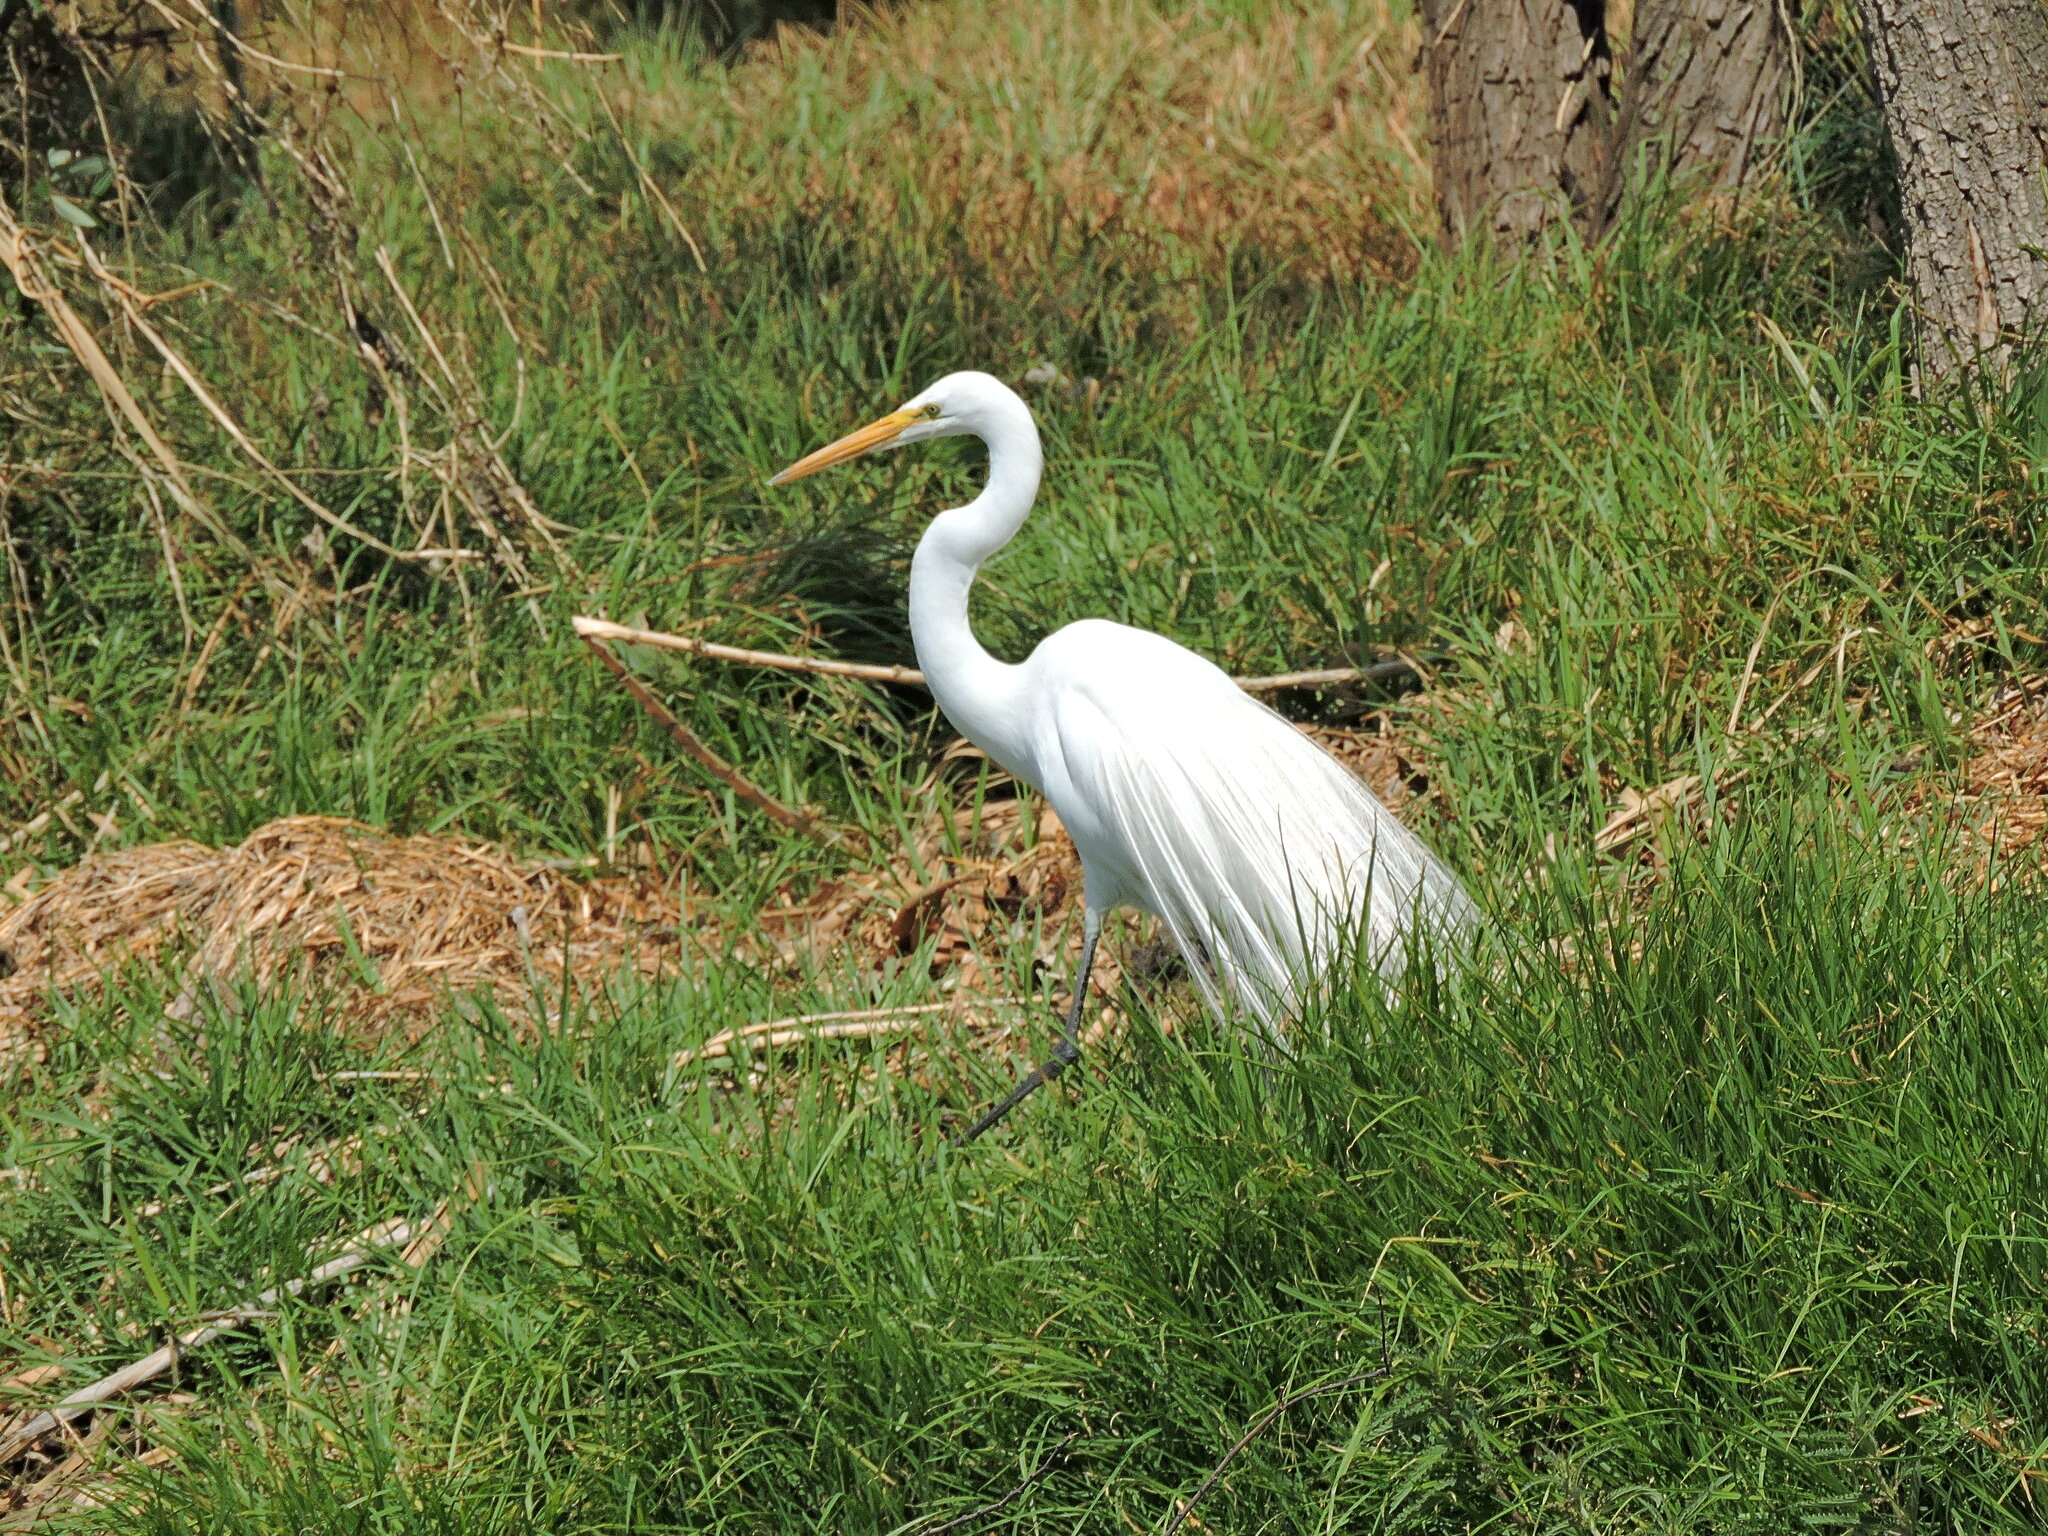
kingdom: Animalia
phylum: Chordata
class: Aves
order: Pelecaniformes
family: Ardeidae
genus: Ardea
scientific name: Ardea alba
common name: Great egret
